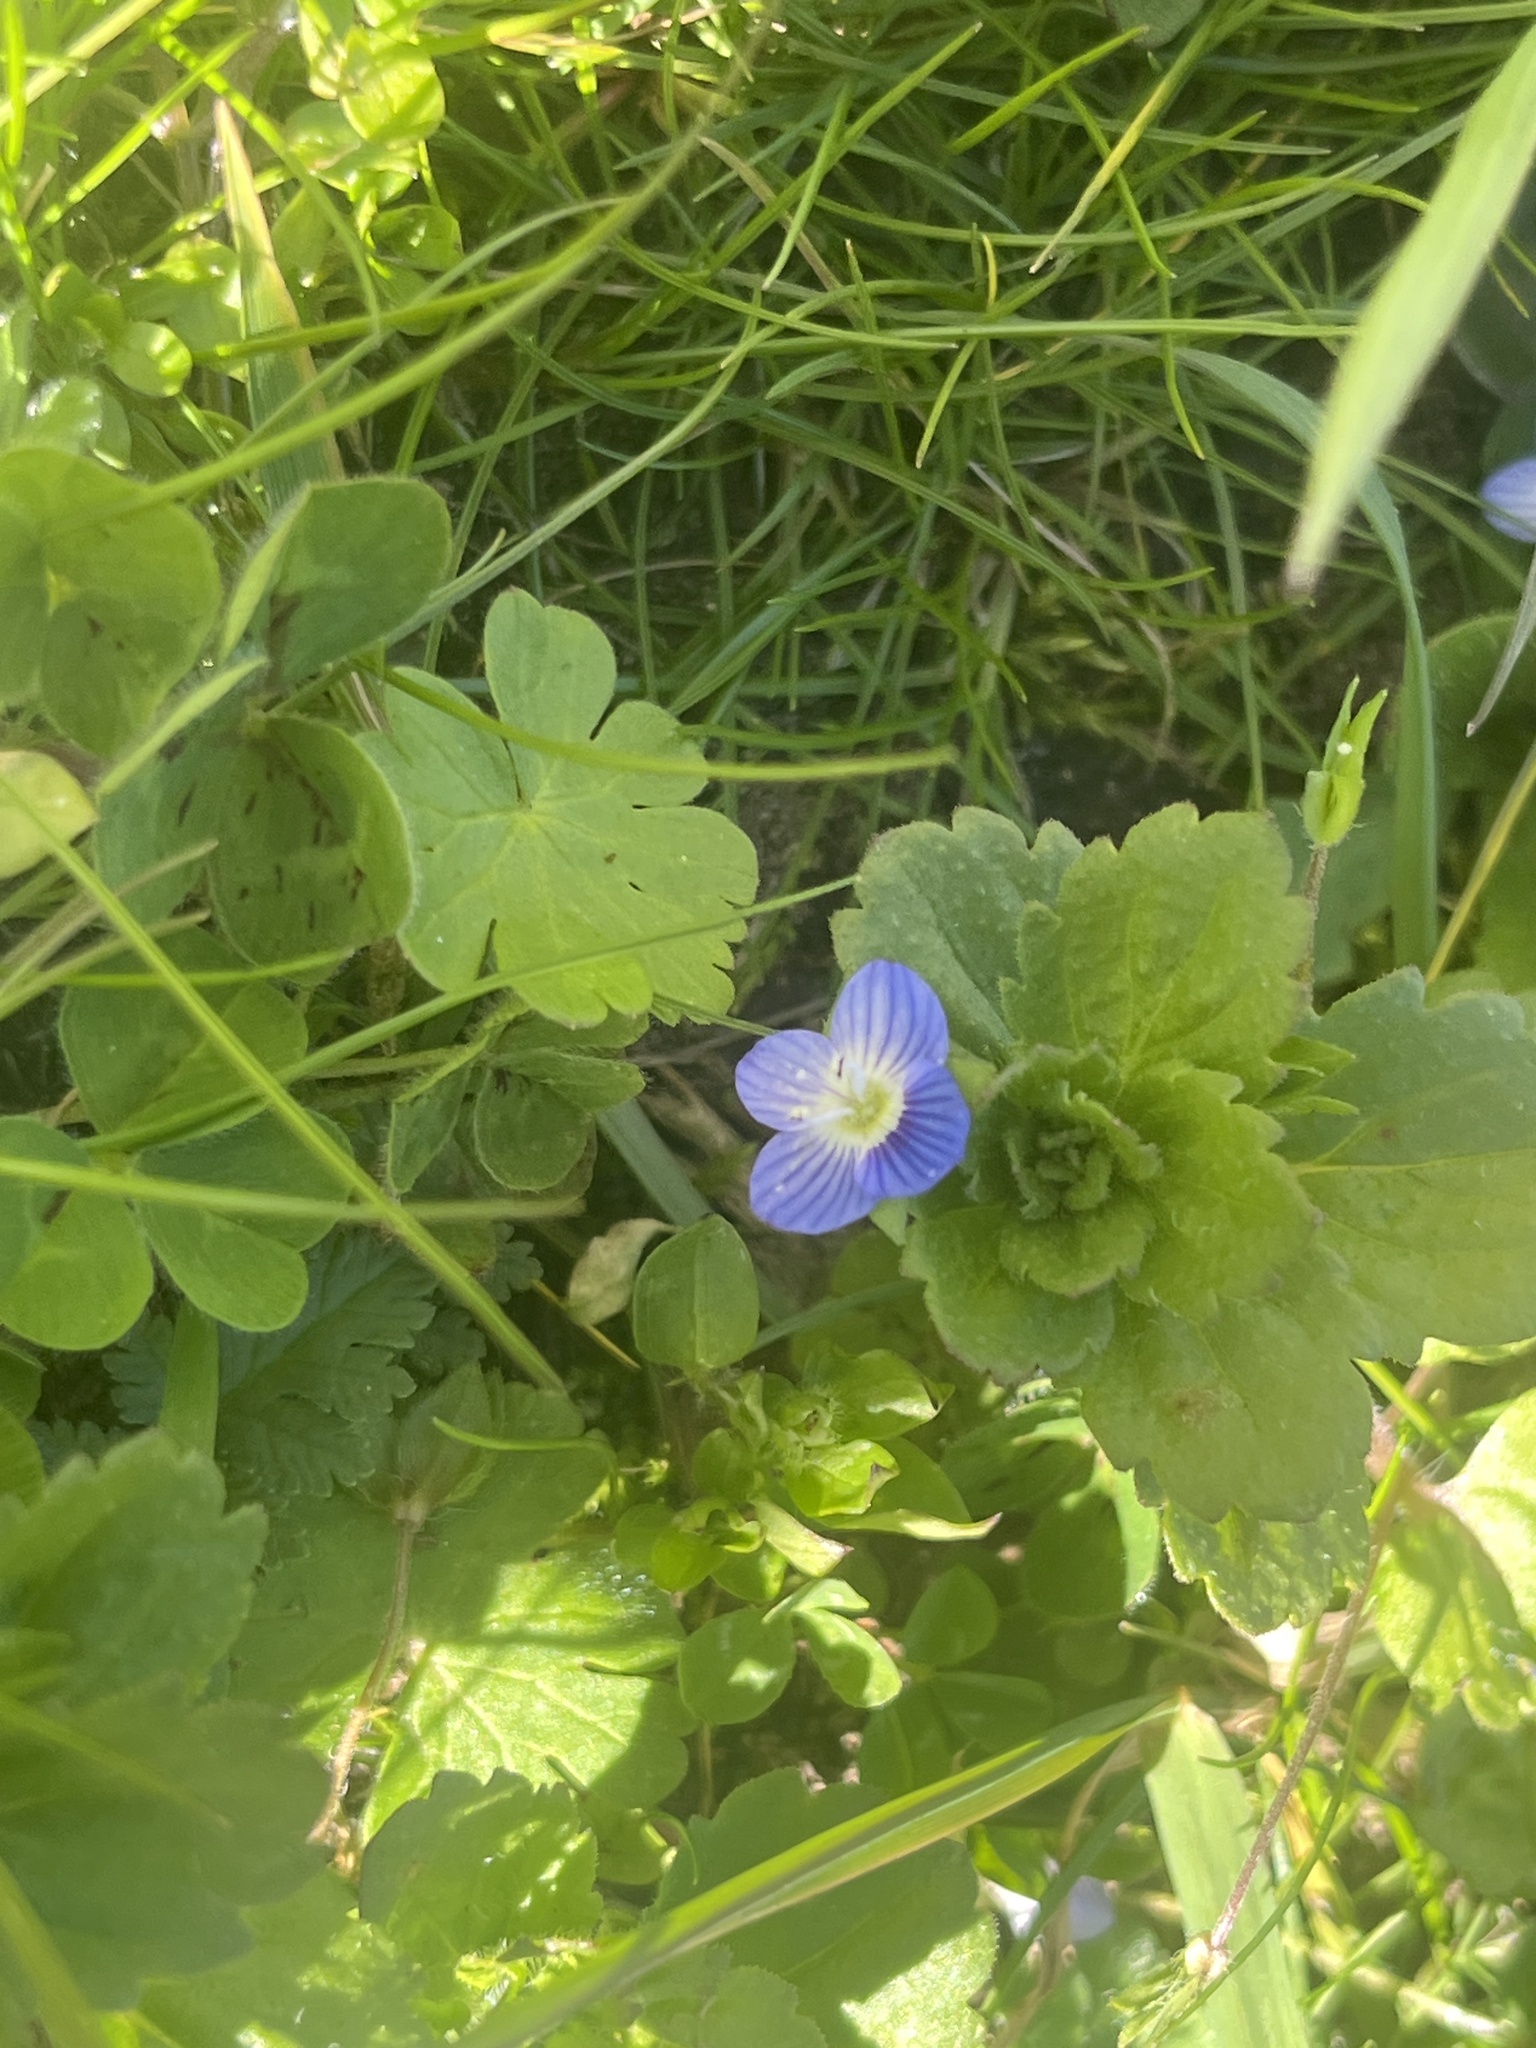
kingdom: Plantae
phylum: Tracheophyta
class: Magnoliopsida
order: Lamiales
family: Plantaginaceae
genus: Veronica
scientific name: Veronica persica
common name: Common field-speedwell
